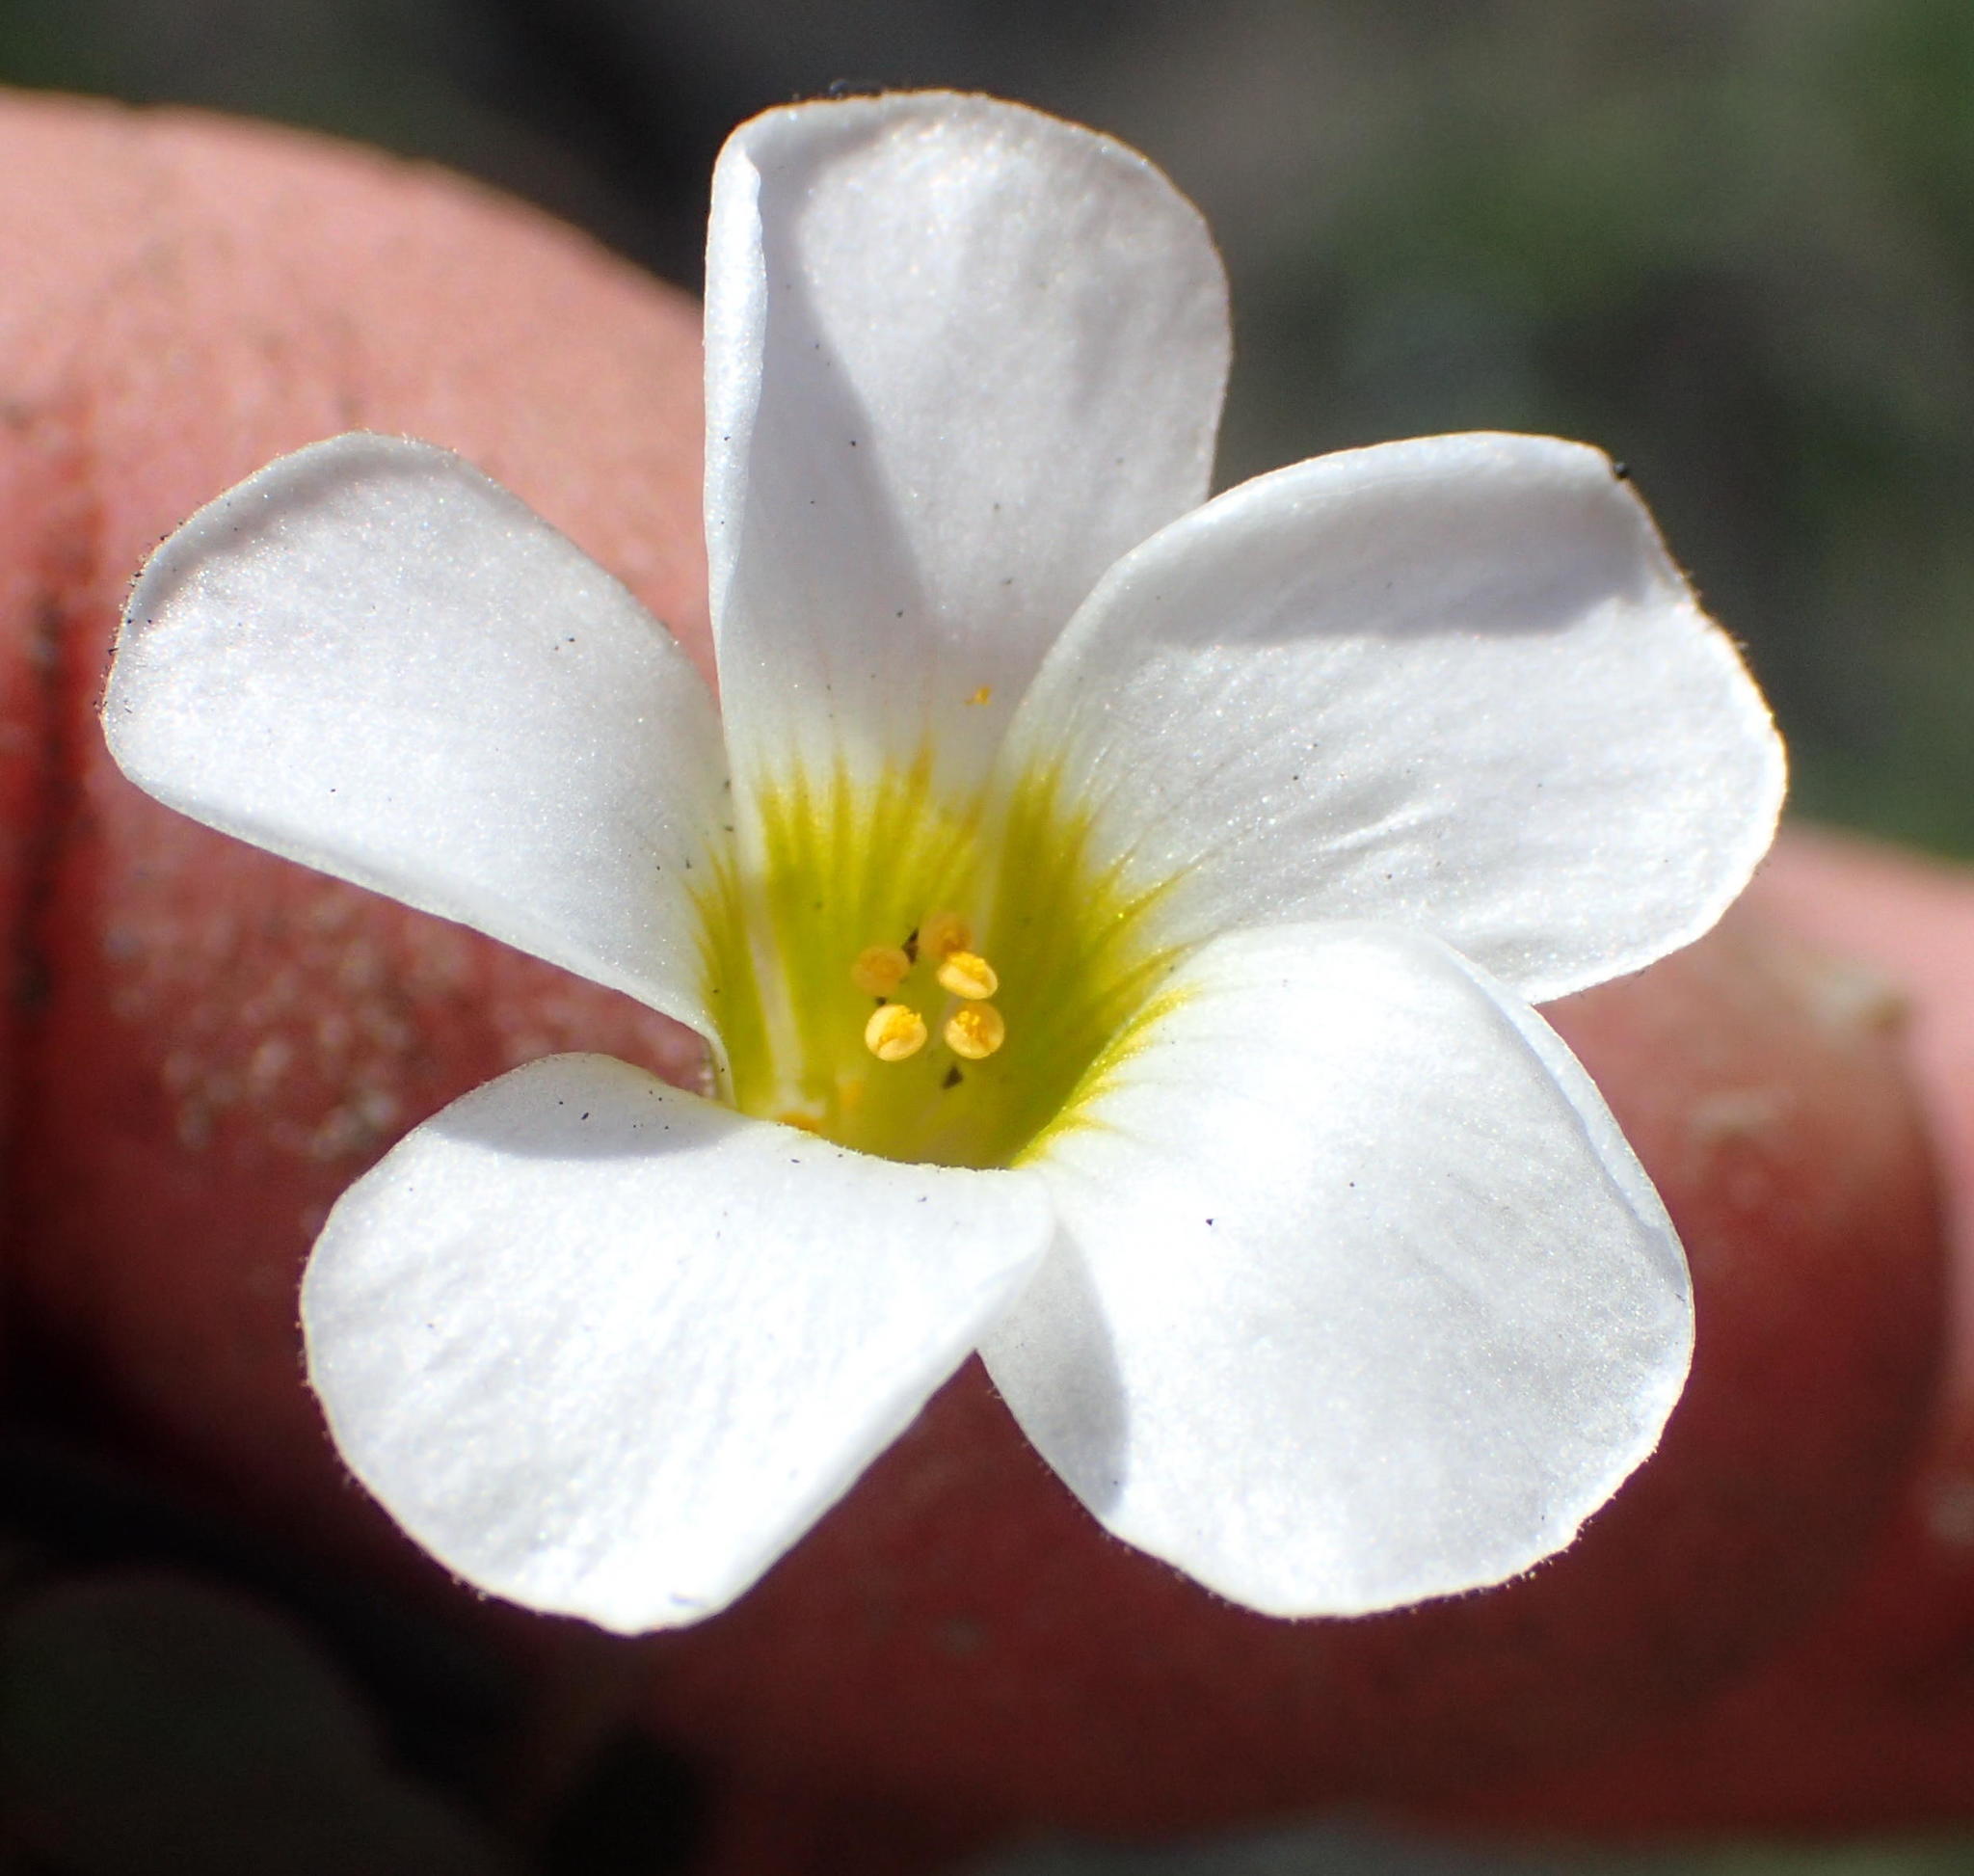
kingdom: Plantae
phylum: Tracheophyta
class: Magnoliopsida
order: Oxalidales
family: Oxalidaceae
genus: Oxalis
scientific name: Oxalis punctata
